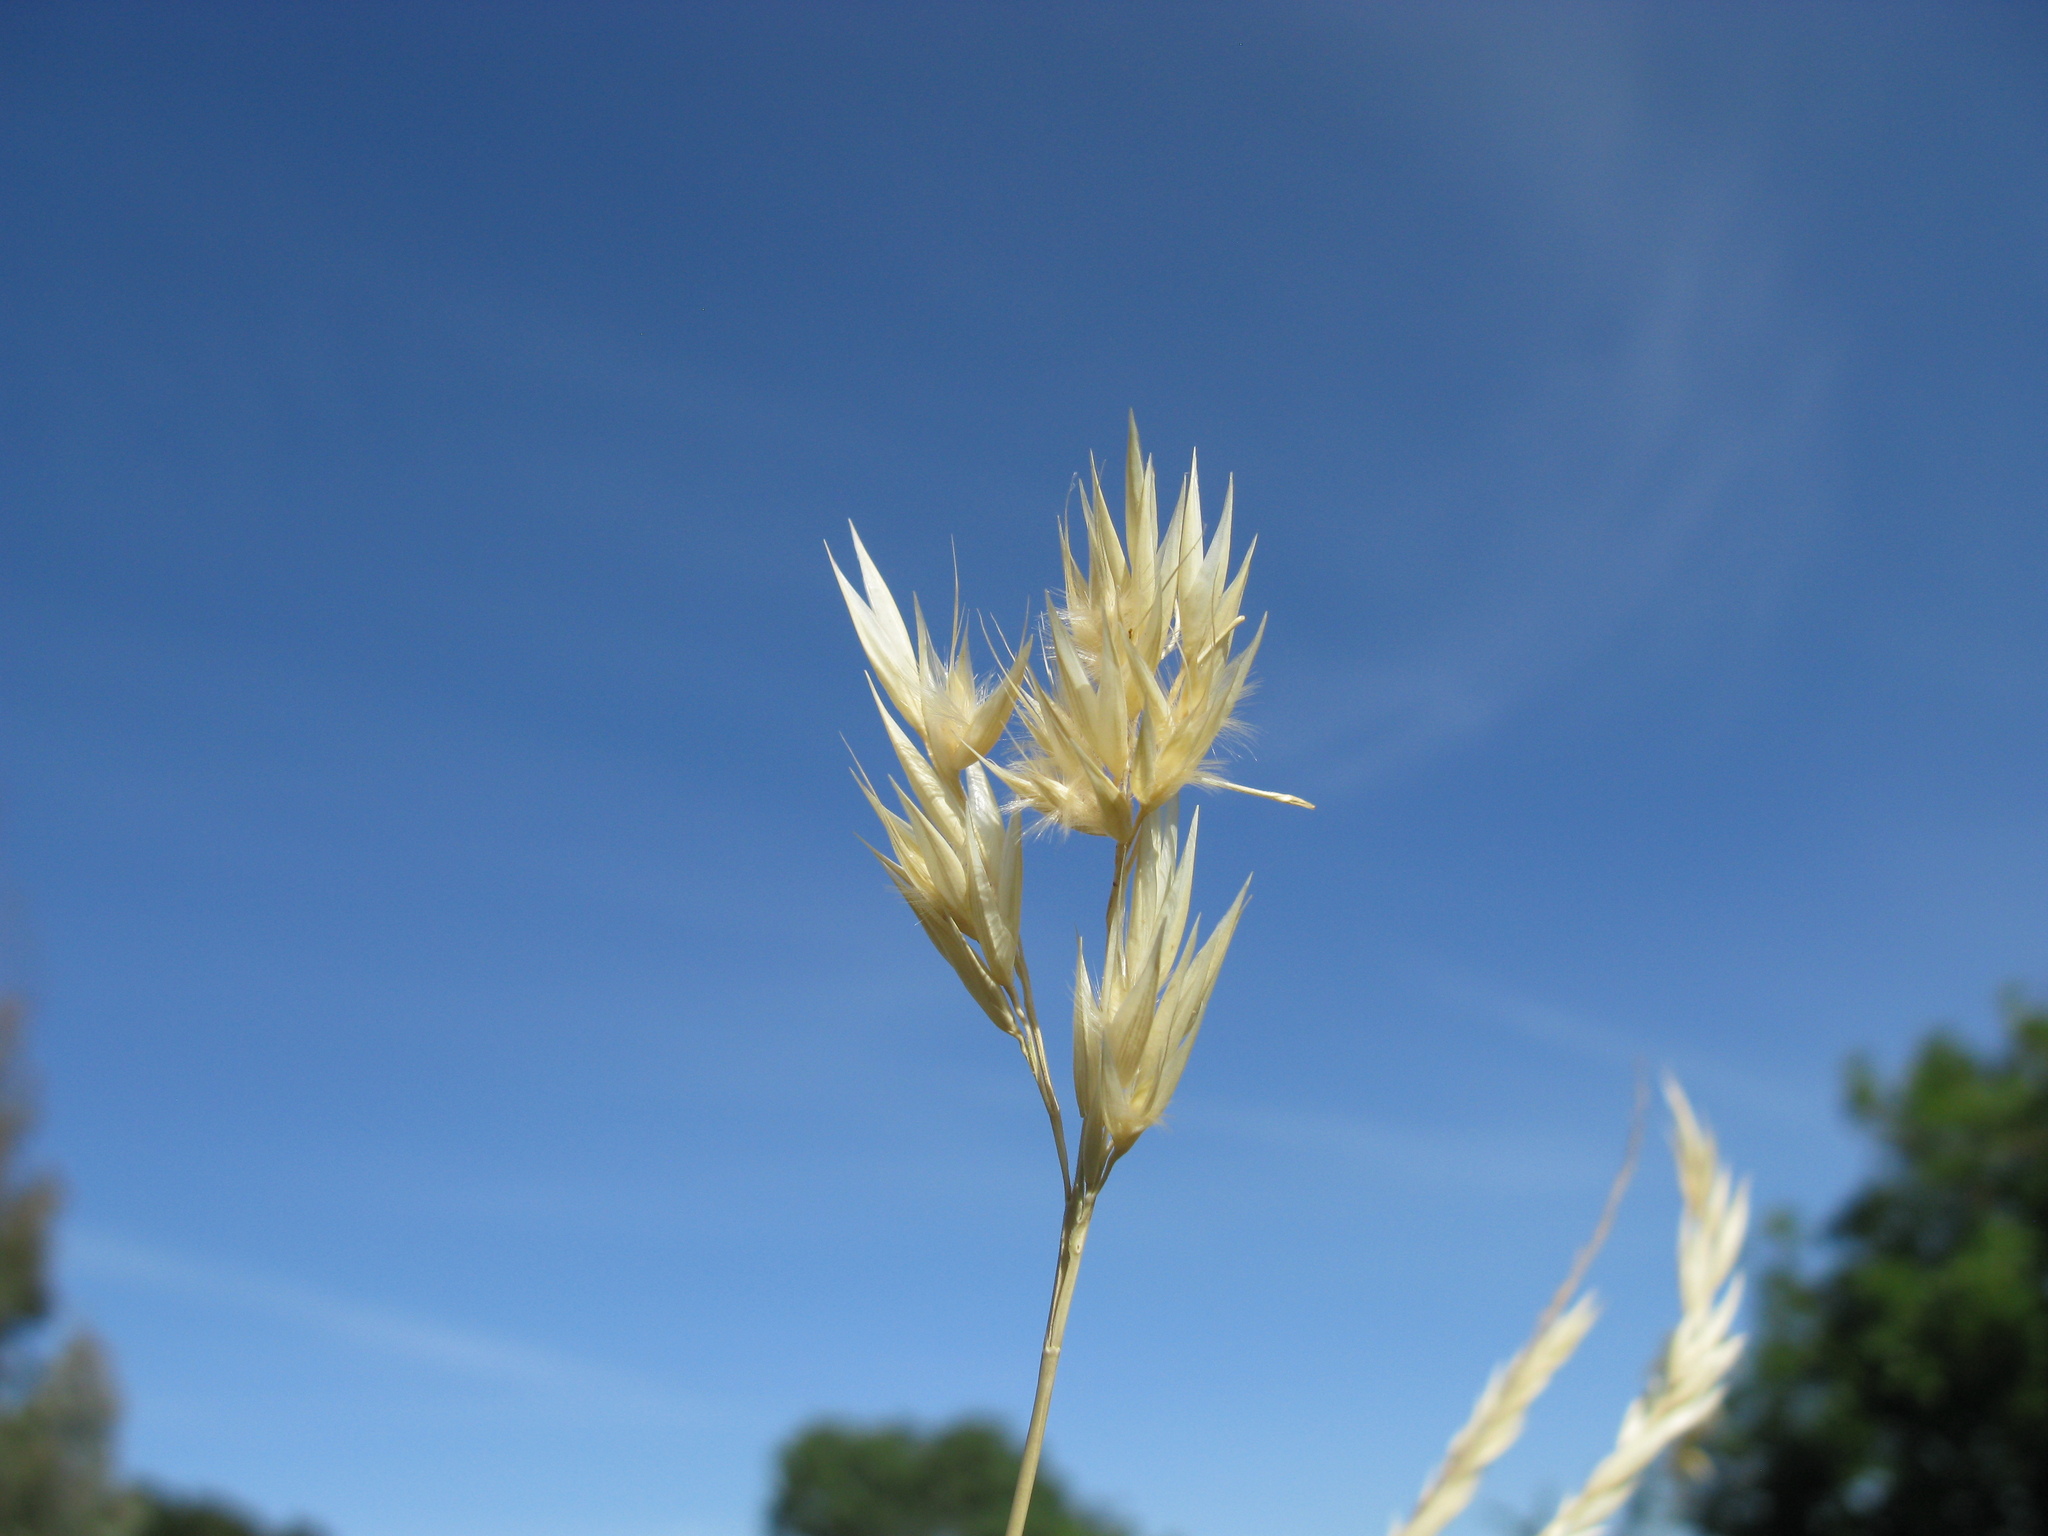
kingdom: Plantae
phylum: Tracheophyta
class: Liliopsida
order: Poales
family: Poaceae
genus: Rytidosperma
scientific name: Rytidosperma richardsonii
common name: Straw wallaby-grass
